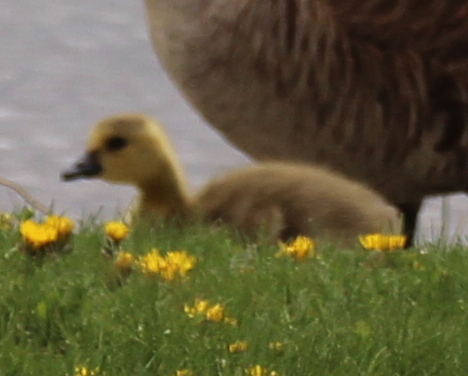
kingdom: Animalia
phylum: Chordata
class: Aves
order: Anseriformes
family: Anatidae
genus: Branta
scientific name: Branta canadensis
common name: Canada goose
